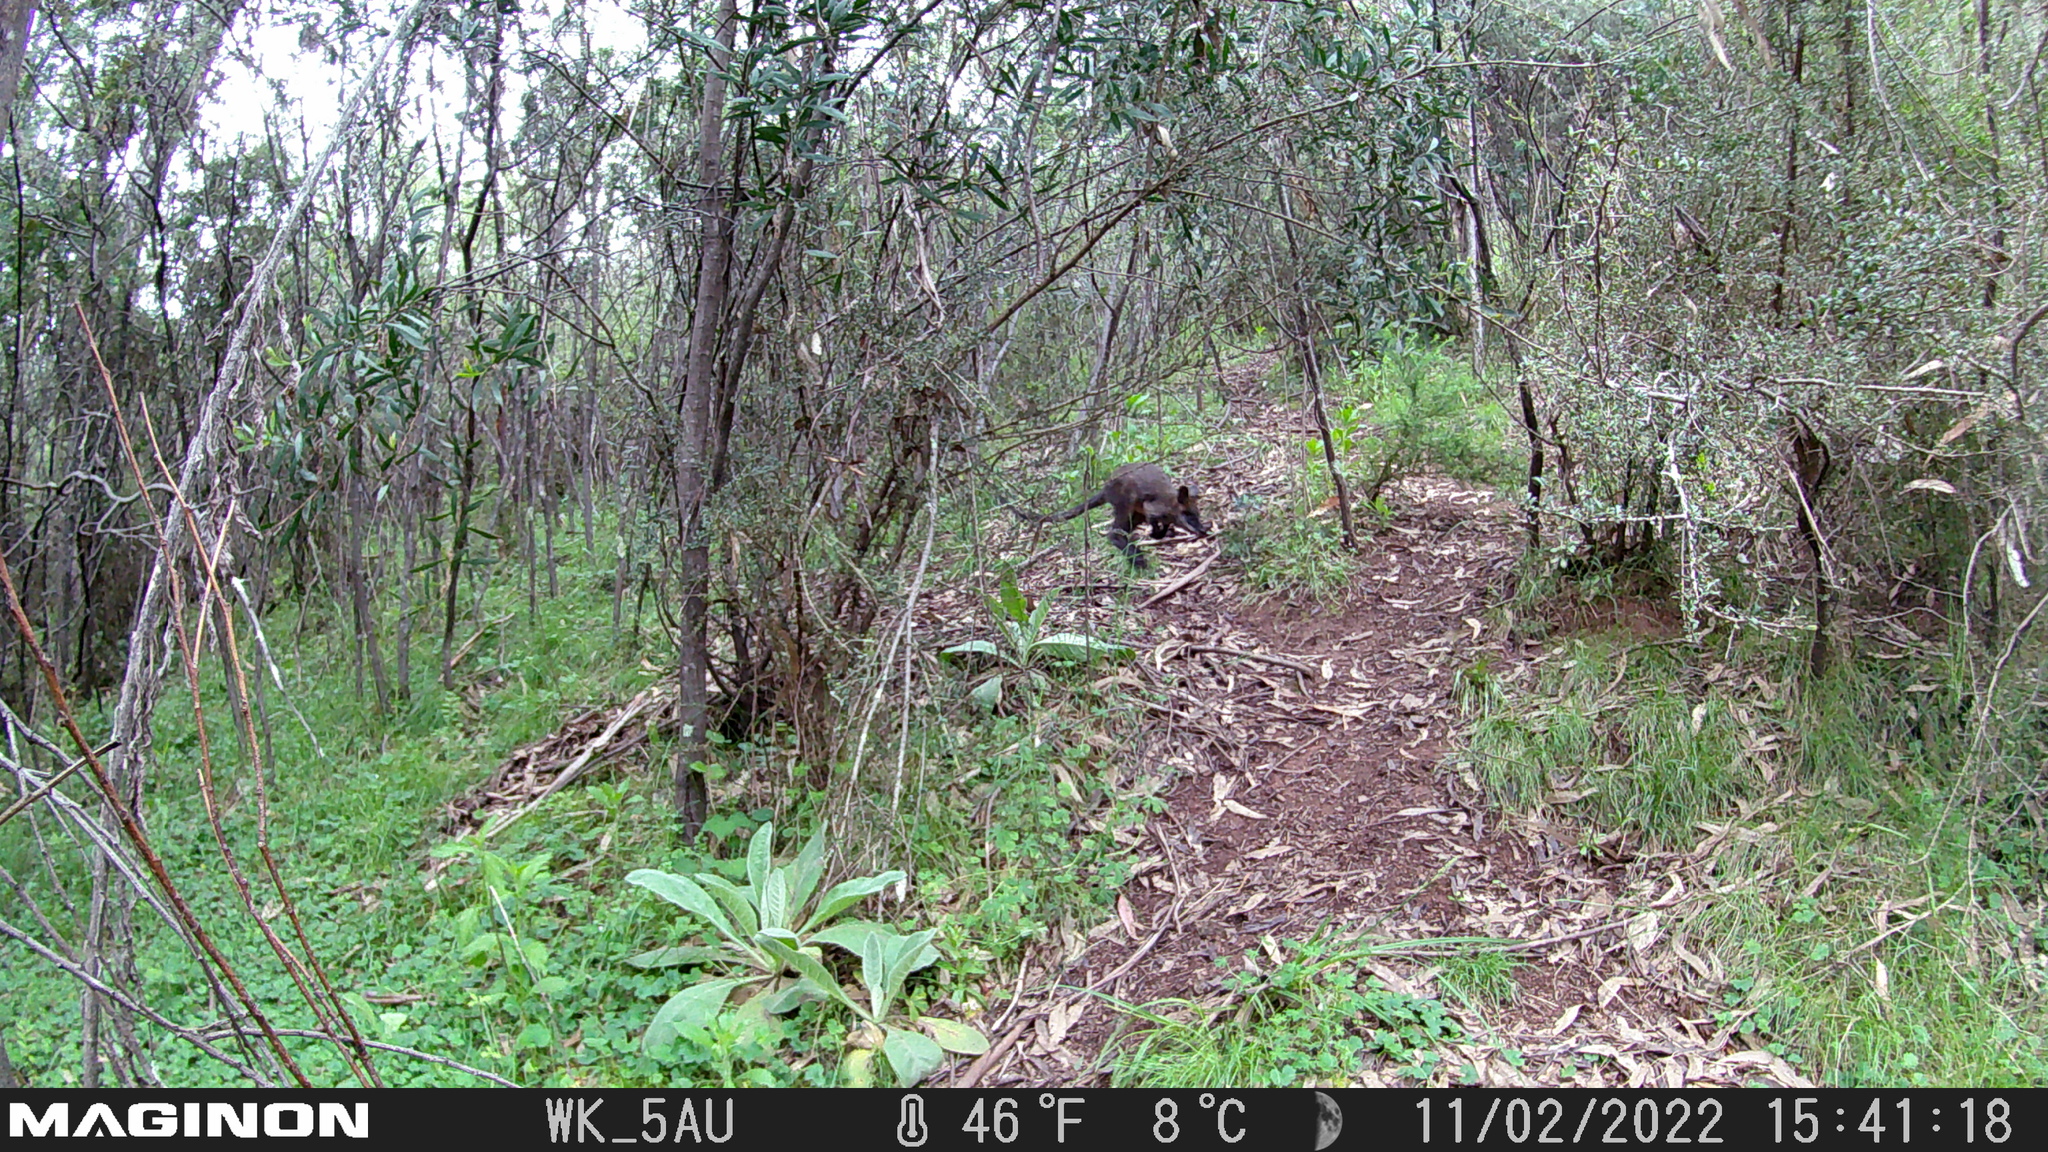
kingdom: Animalia
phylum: Chordata
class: Mammalia
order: Diprotodontia
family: Macropodidae
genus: Wallabia
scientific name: Wallabia bicolor
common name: Swamp wallaby
